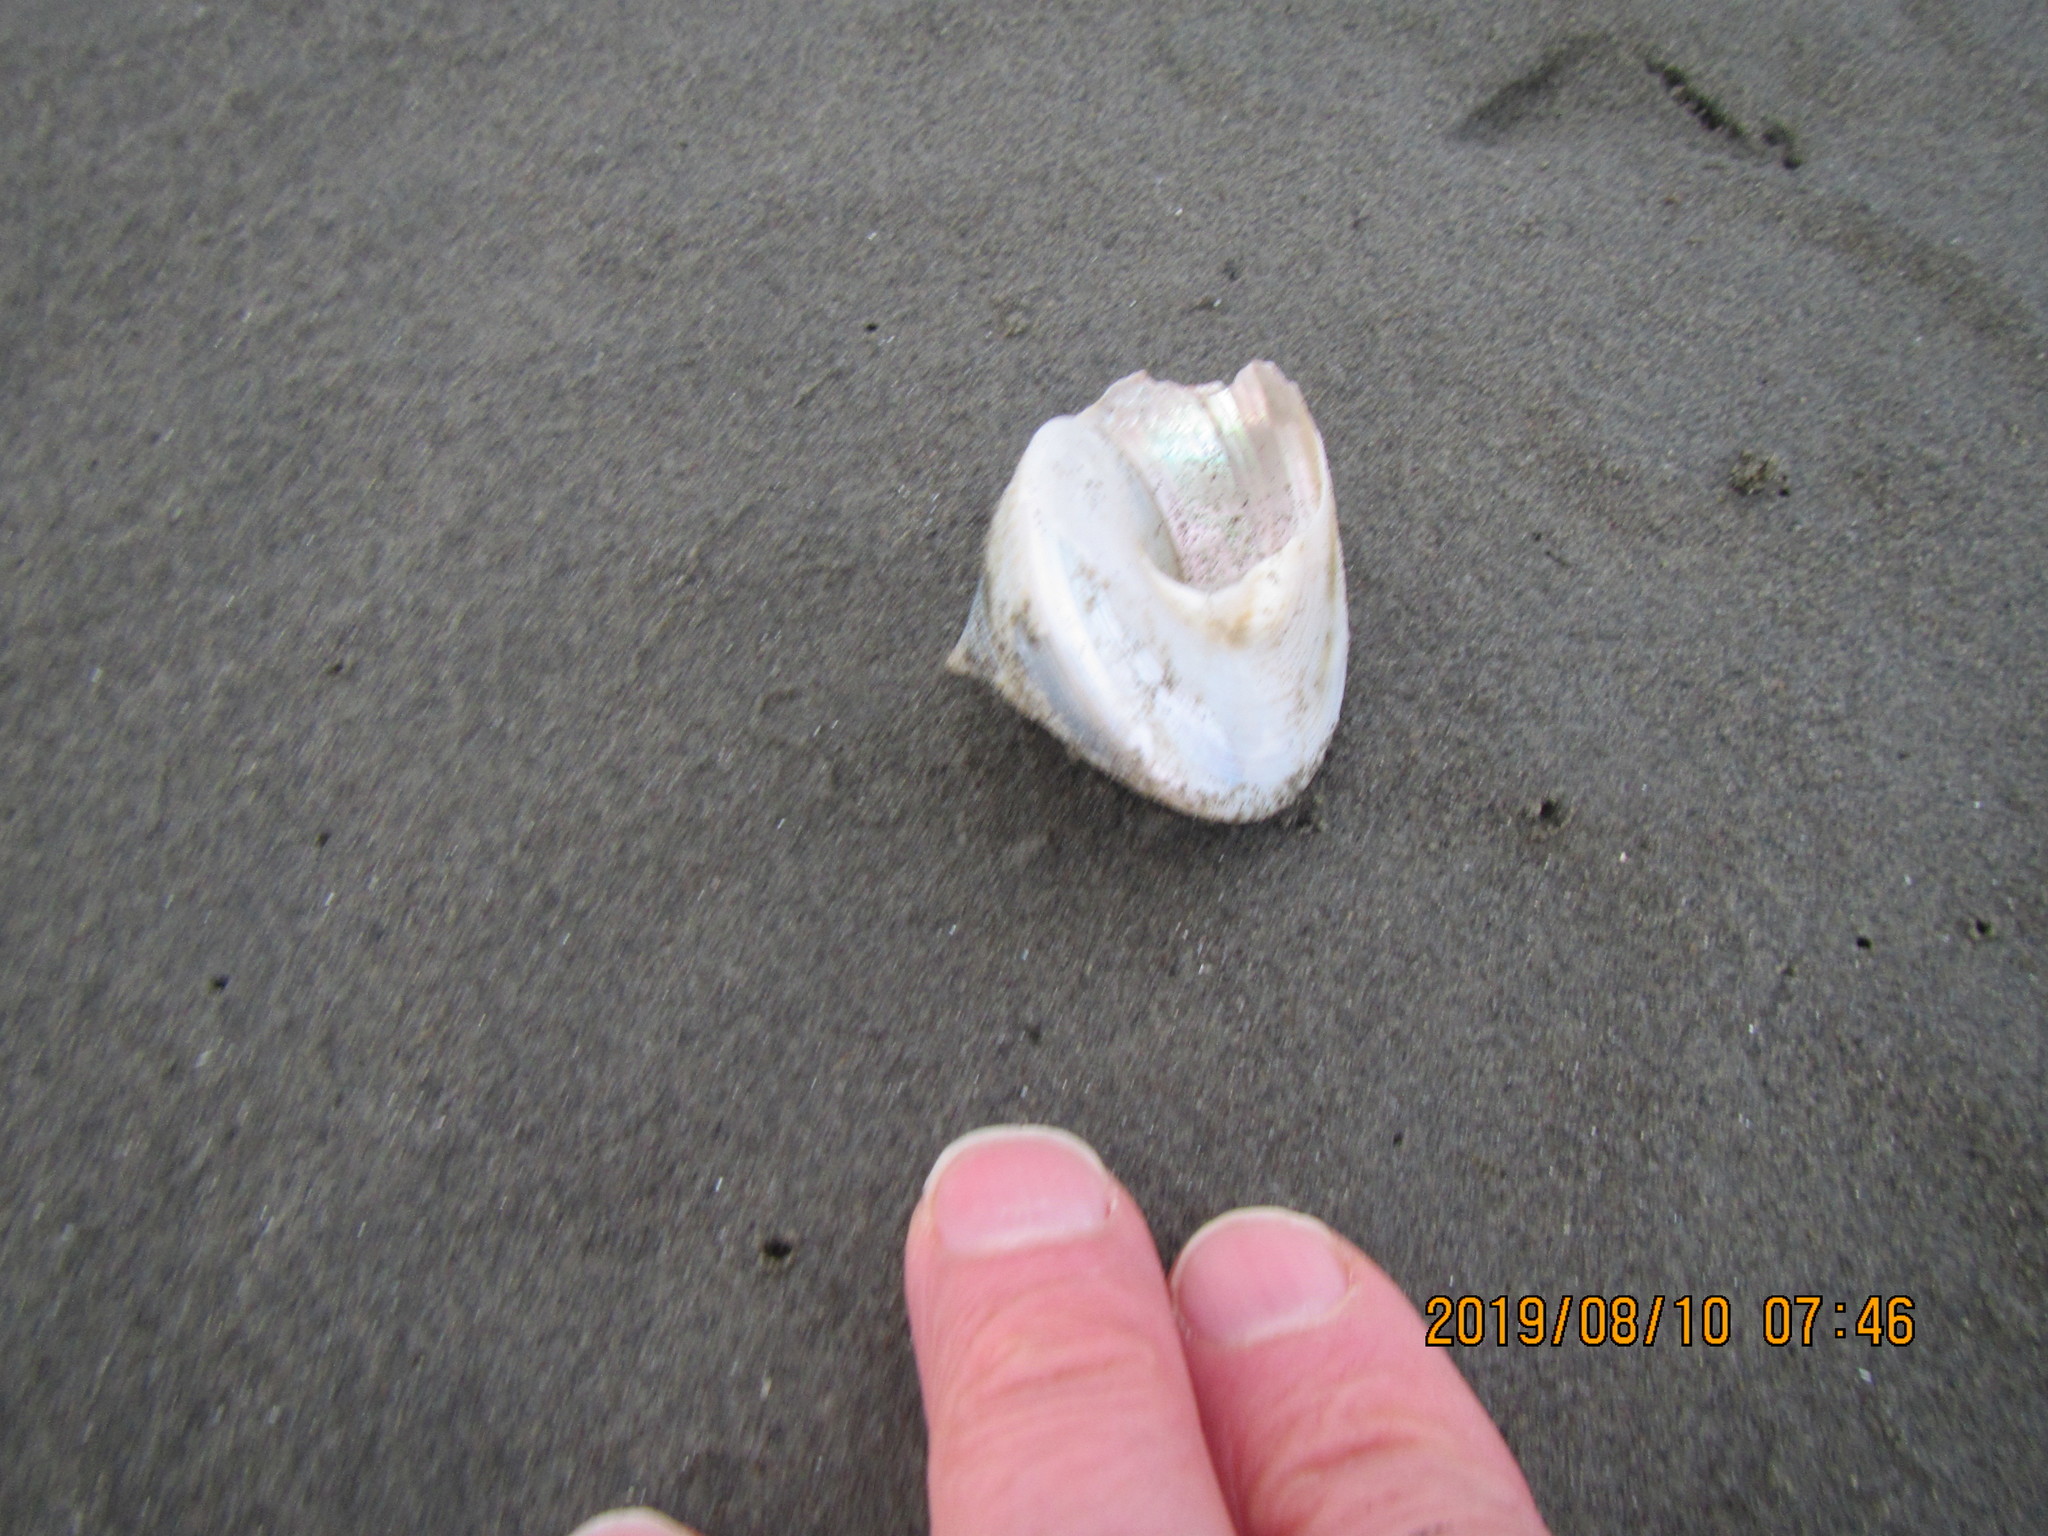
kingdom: Animalia
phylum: Mollusca
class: Gastropoda
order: Trochida
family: Calliostomatidae
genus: Maurea
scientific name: Maurea selecta
